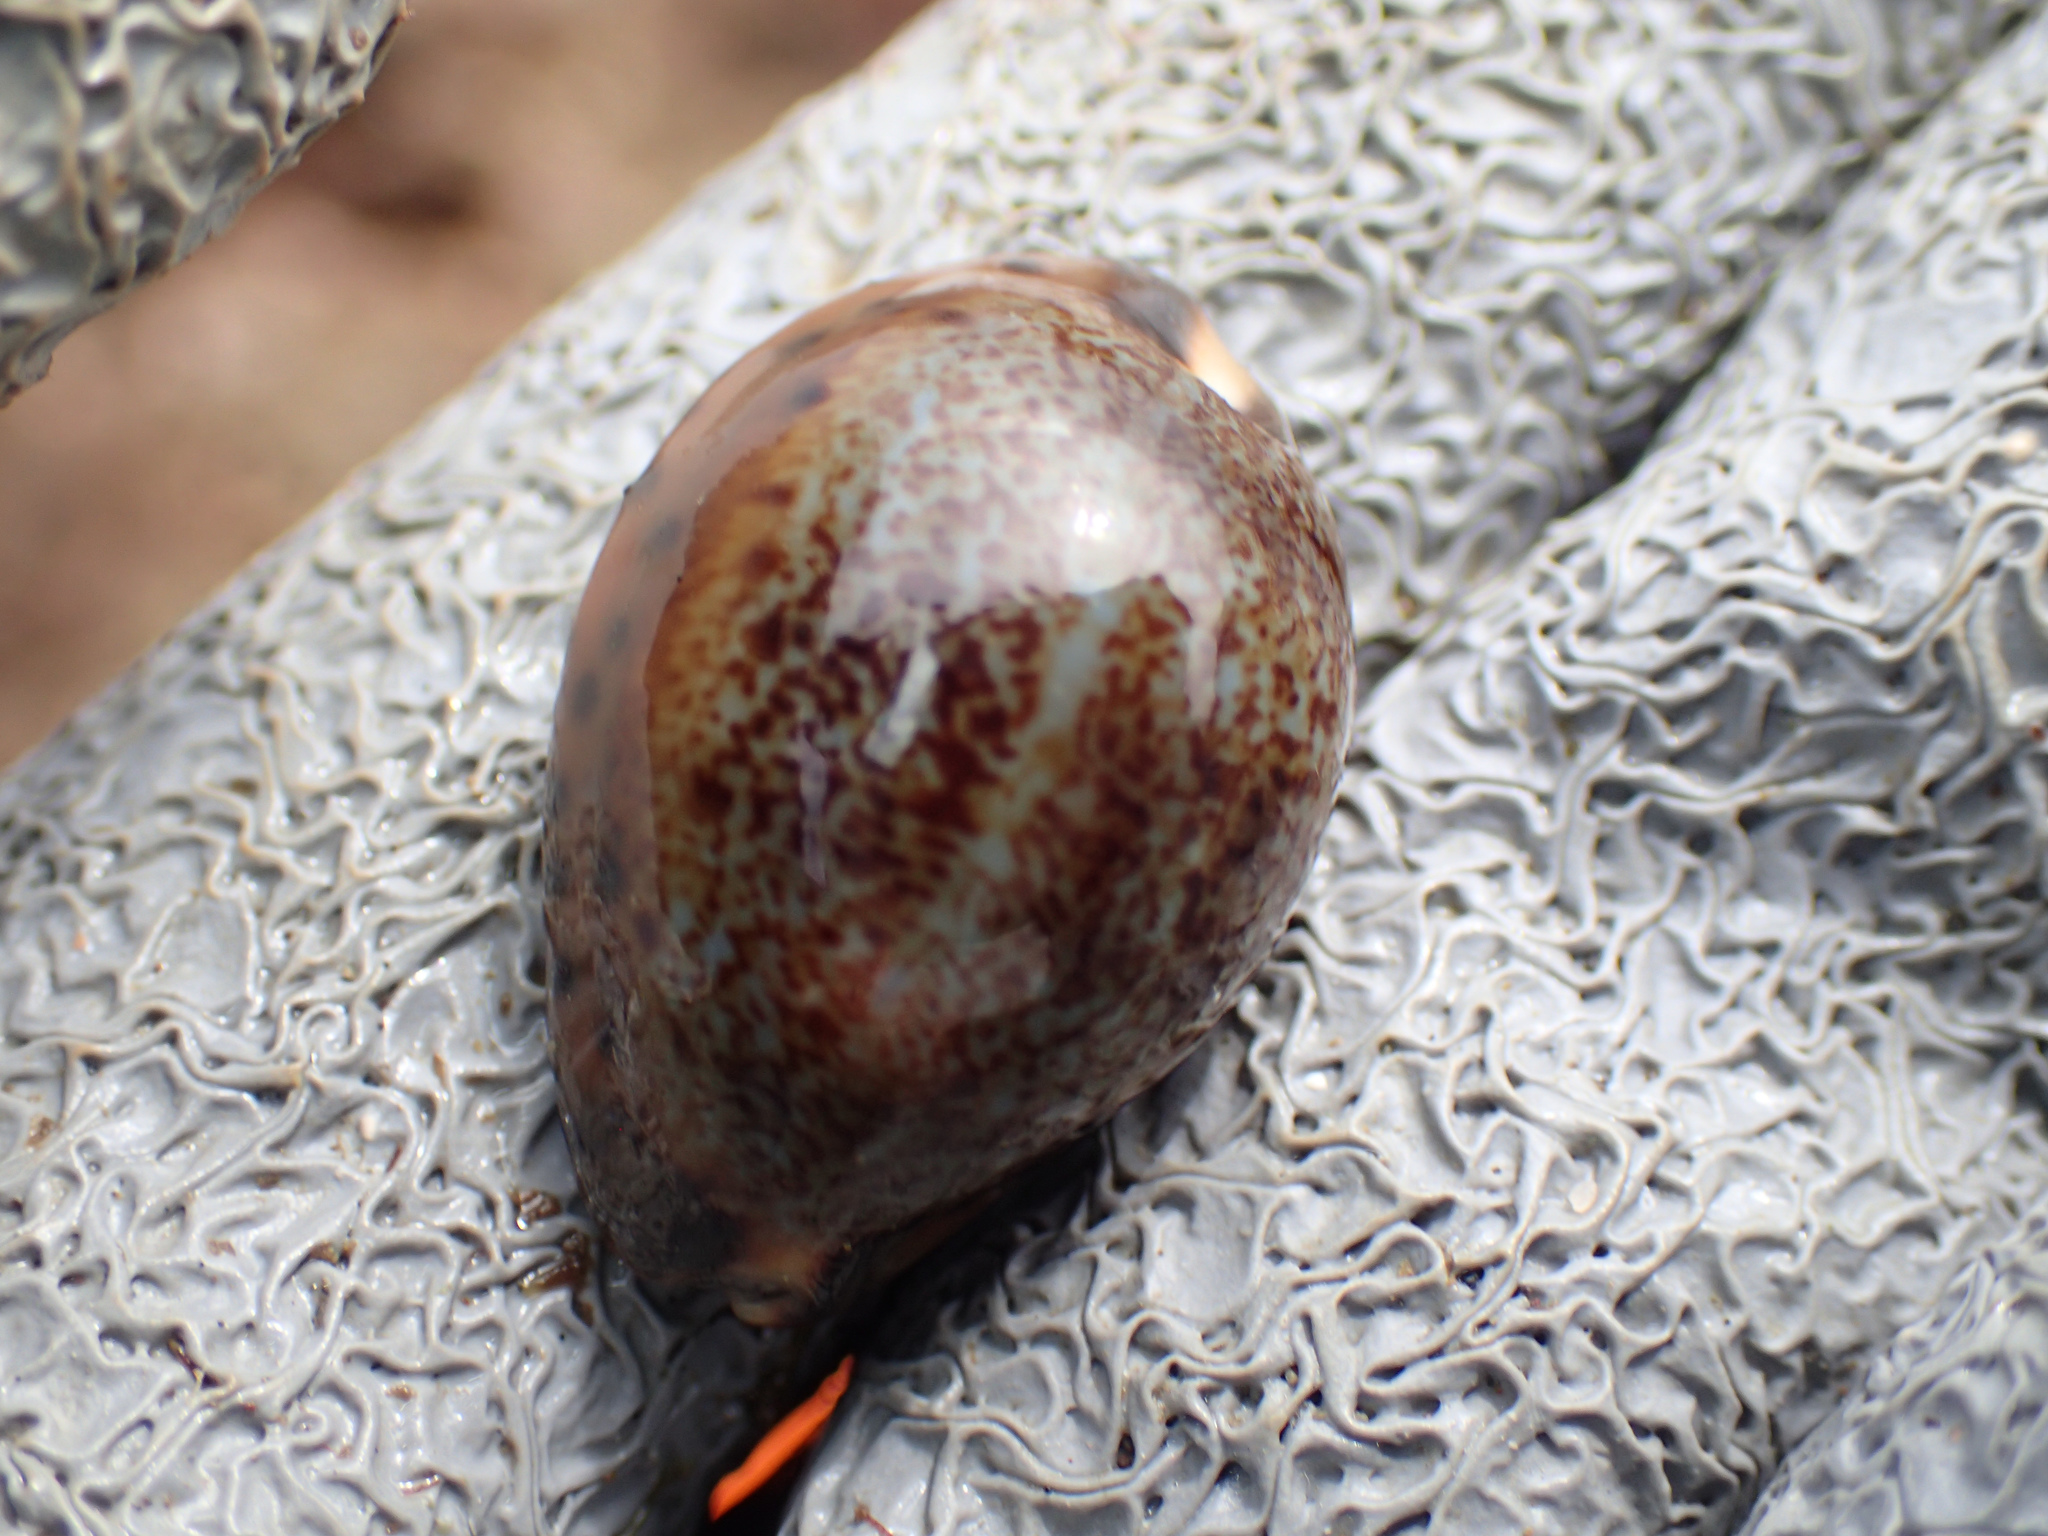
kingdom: Animalia
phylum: Mollusca
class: Gastropoda
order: Littorinimorpha
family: Cypraeidae
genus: Pseudozonaria
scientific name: Pseudozonaria robertsi
